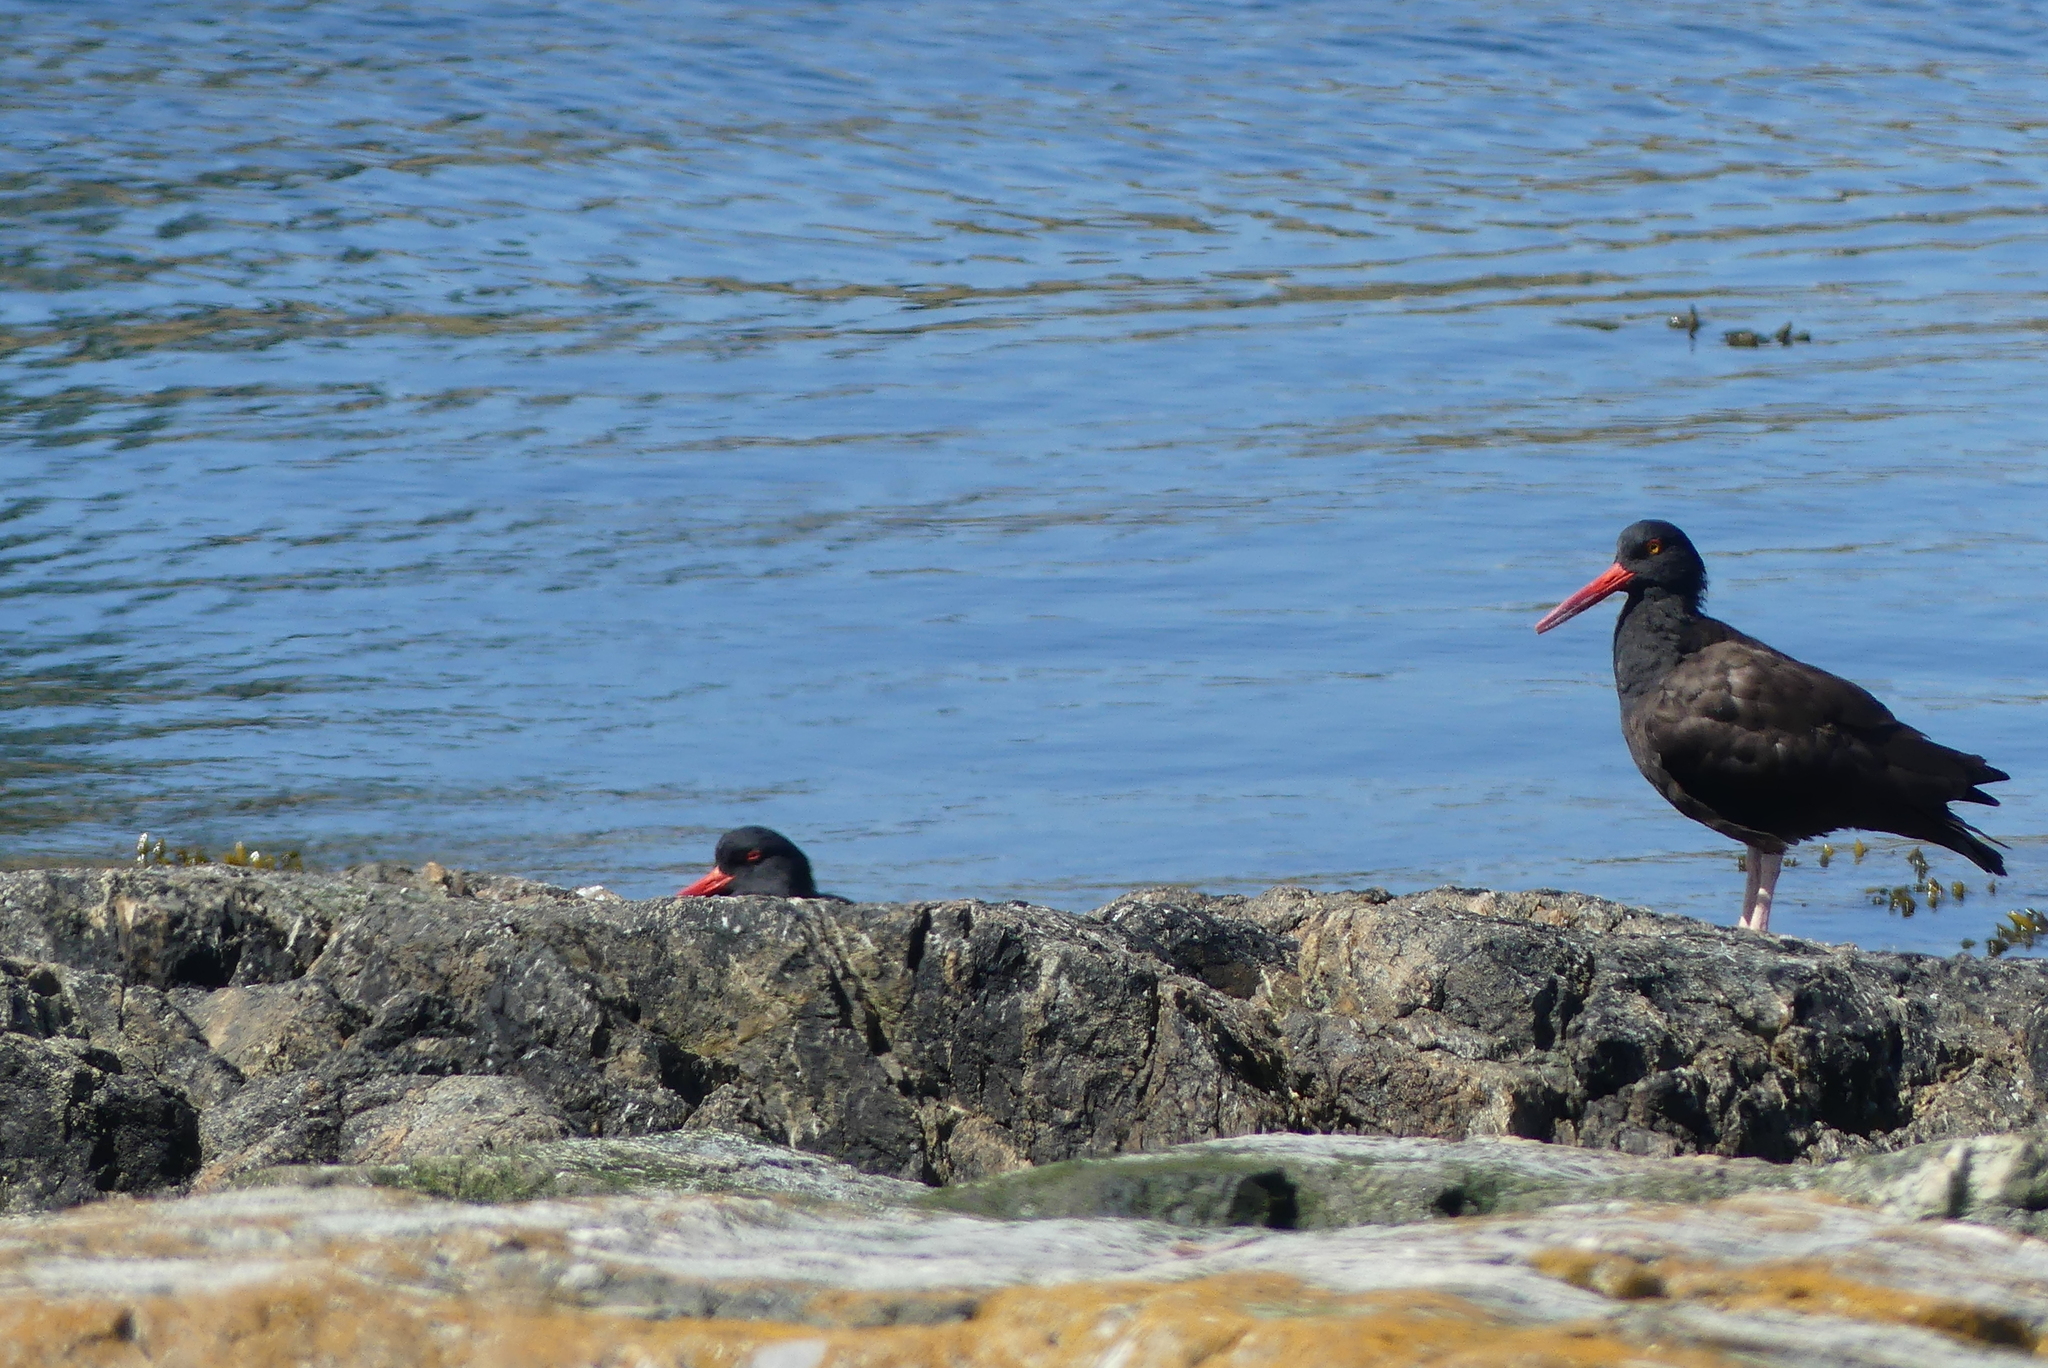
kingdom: Animalia
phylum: Chordata
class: Aves
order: Charadriiformes
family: Haematopodidae
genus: Haematopus
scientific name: Haematopus bachmani
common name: Black oystercatcher
